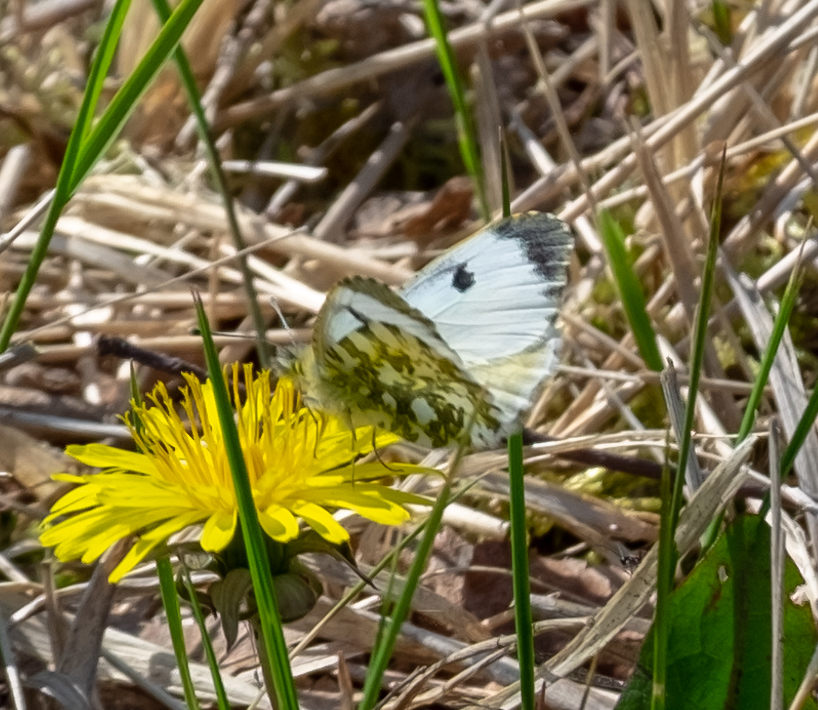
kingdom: Animalia
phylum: Arthropoda
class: Insecta
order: Lepidoptera
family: Pieridae
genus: Anthocharis
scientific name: Anthocharis cardamines
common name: Orange-tip
